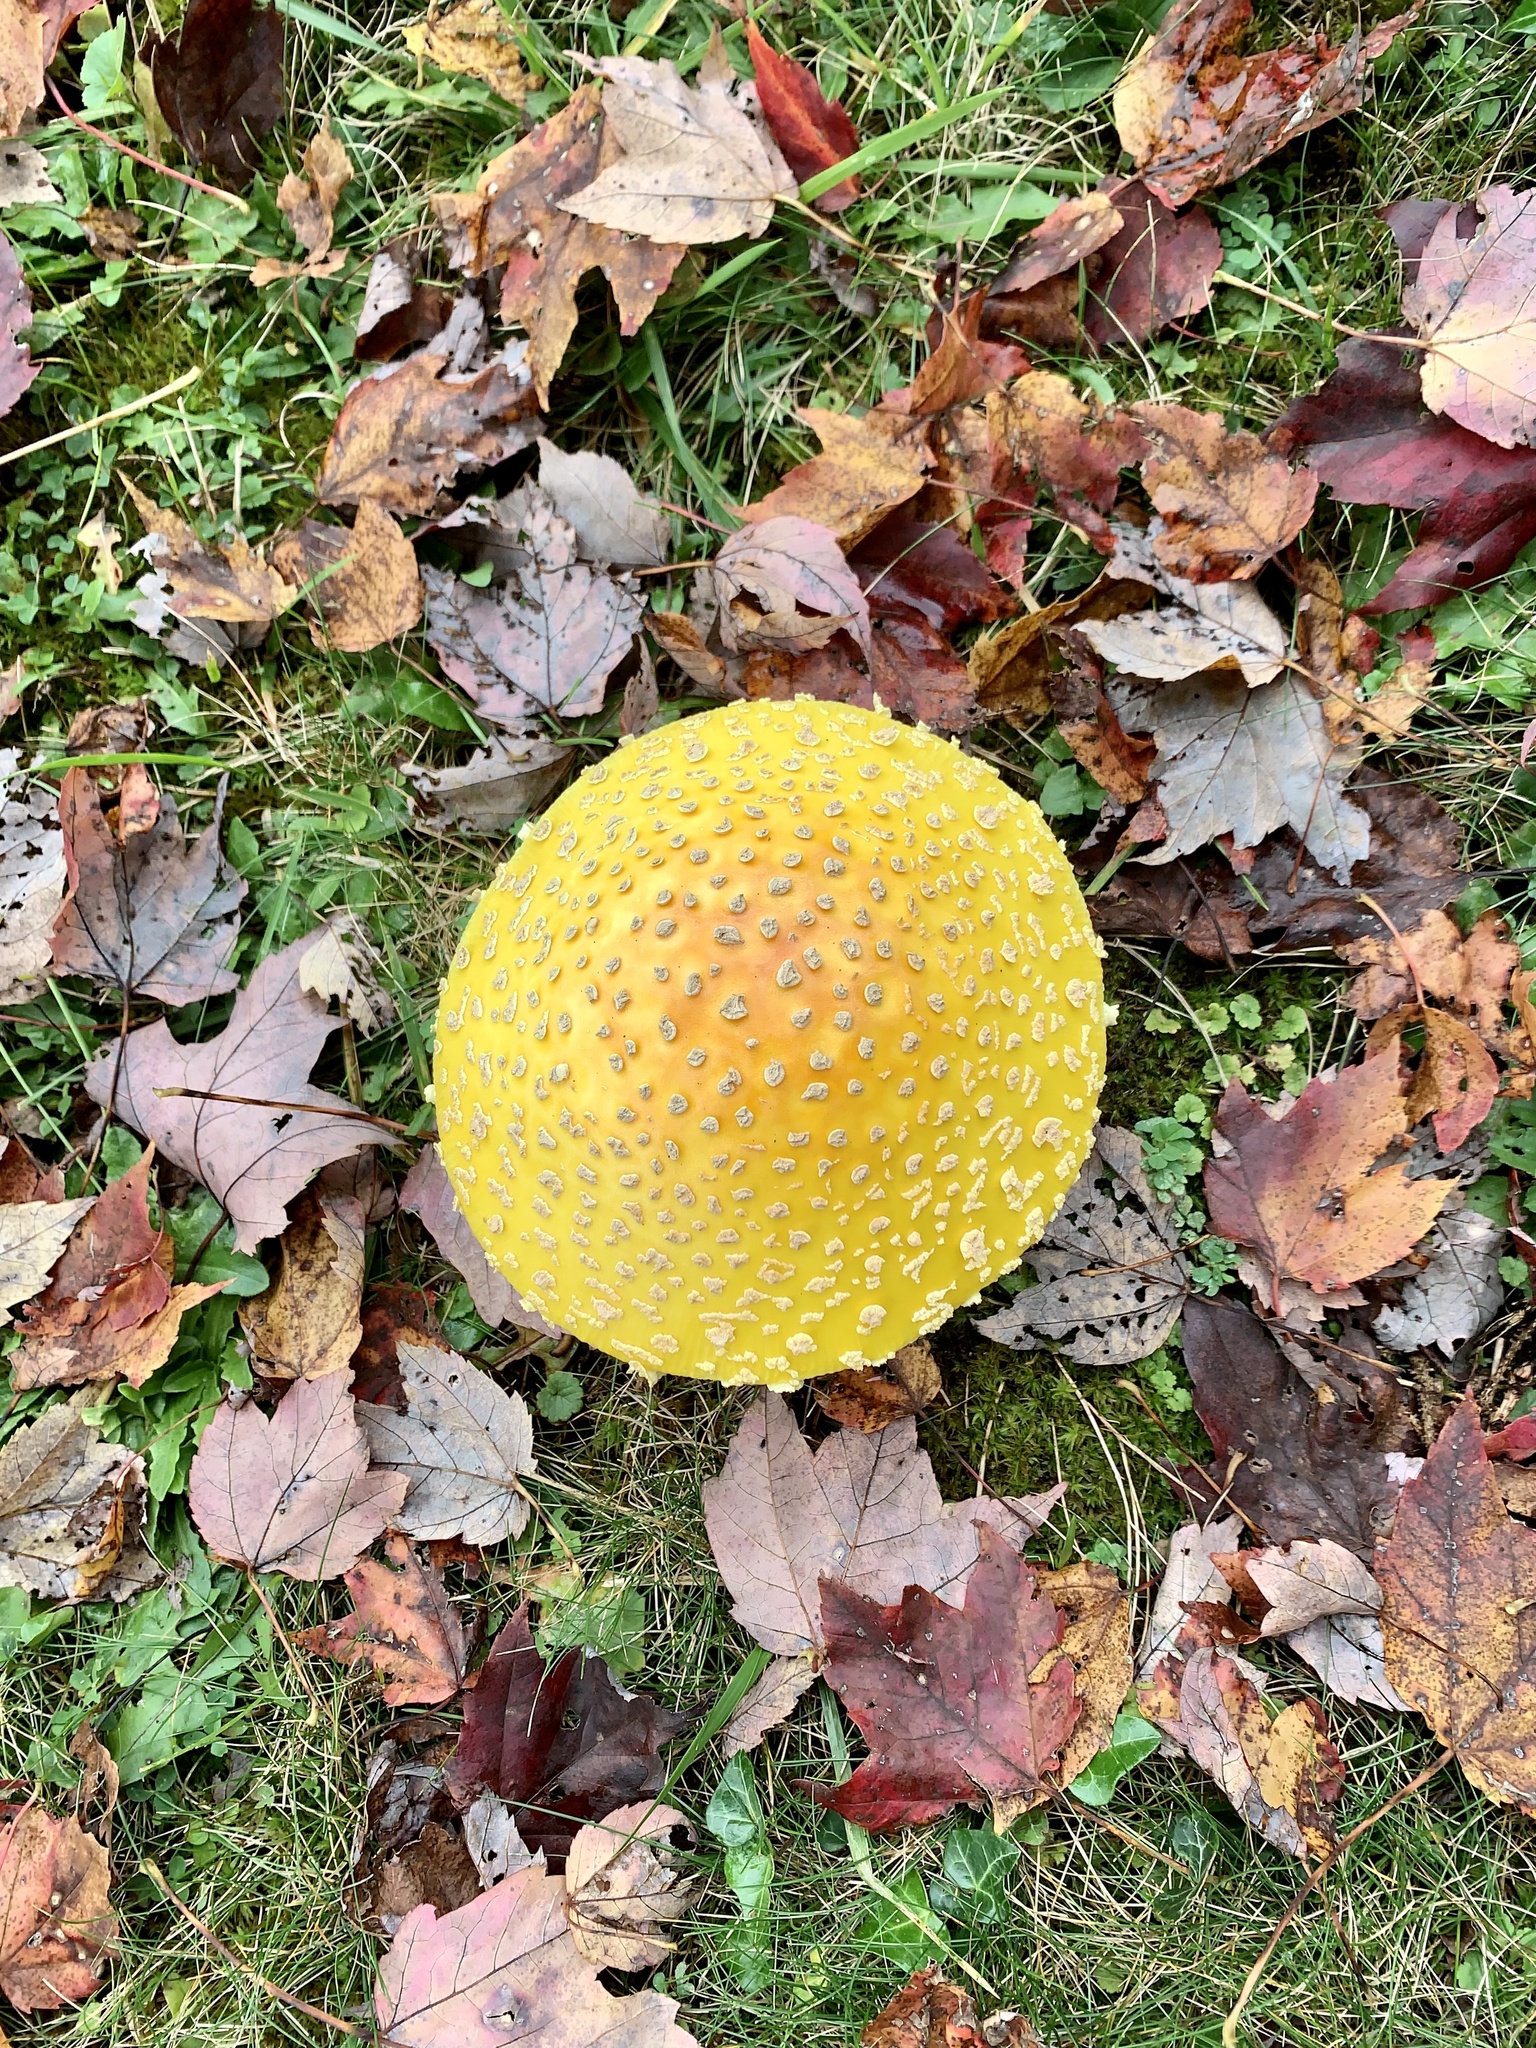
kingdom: Fungi
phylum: Basidiomycota
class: Agaricomycetes
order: Agaricales
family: Amanitaceae
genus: Amanita
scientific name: Amanita muscaria
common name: Fly agaric
